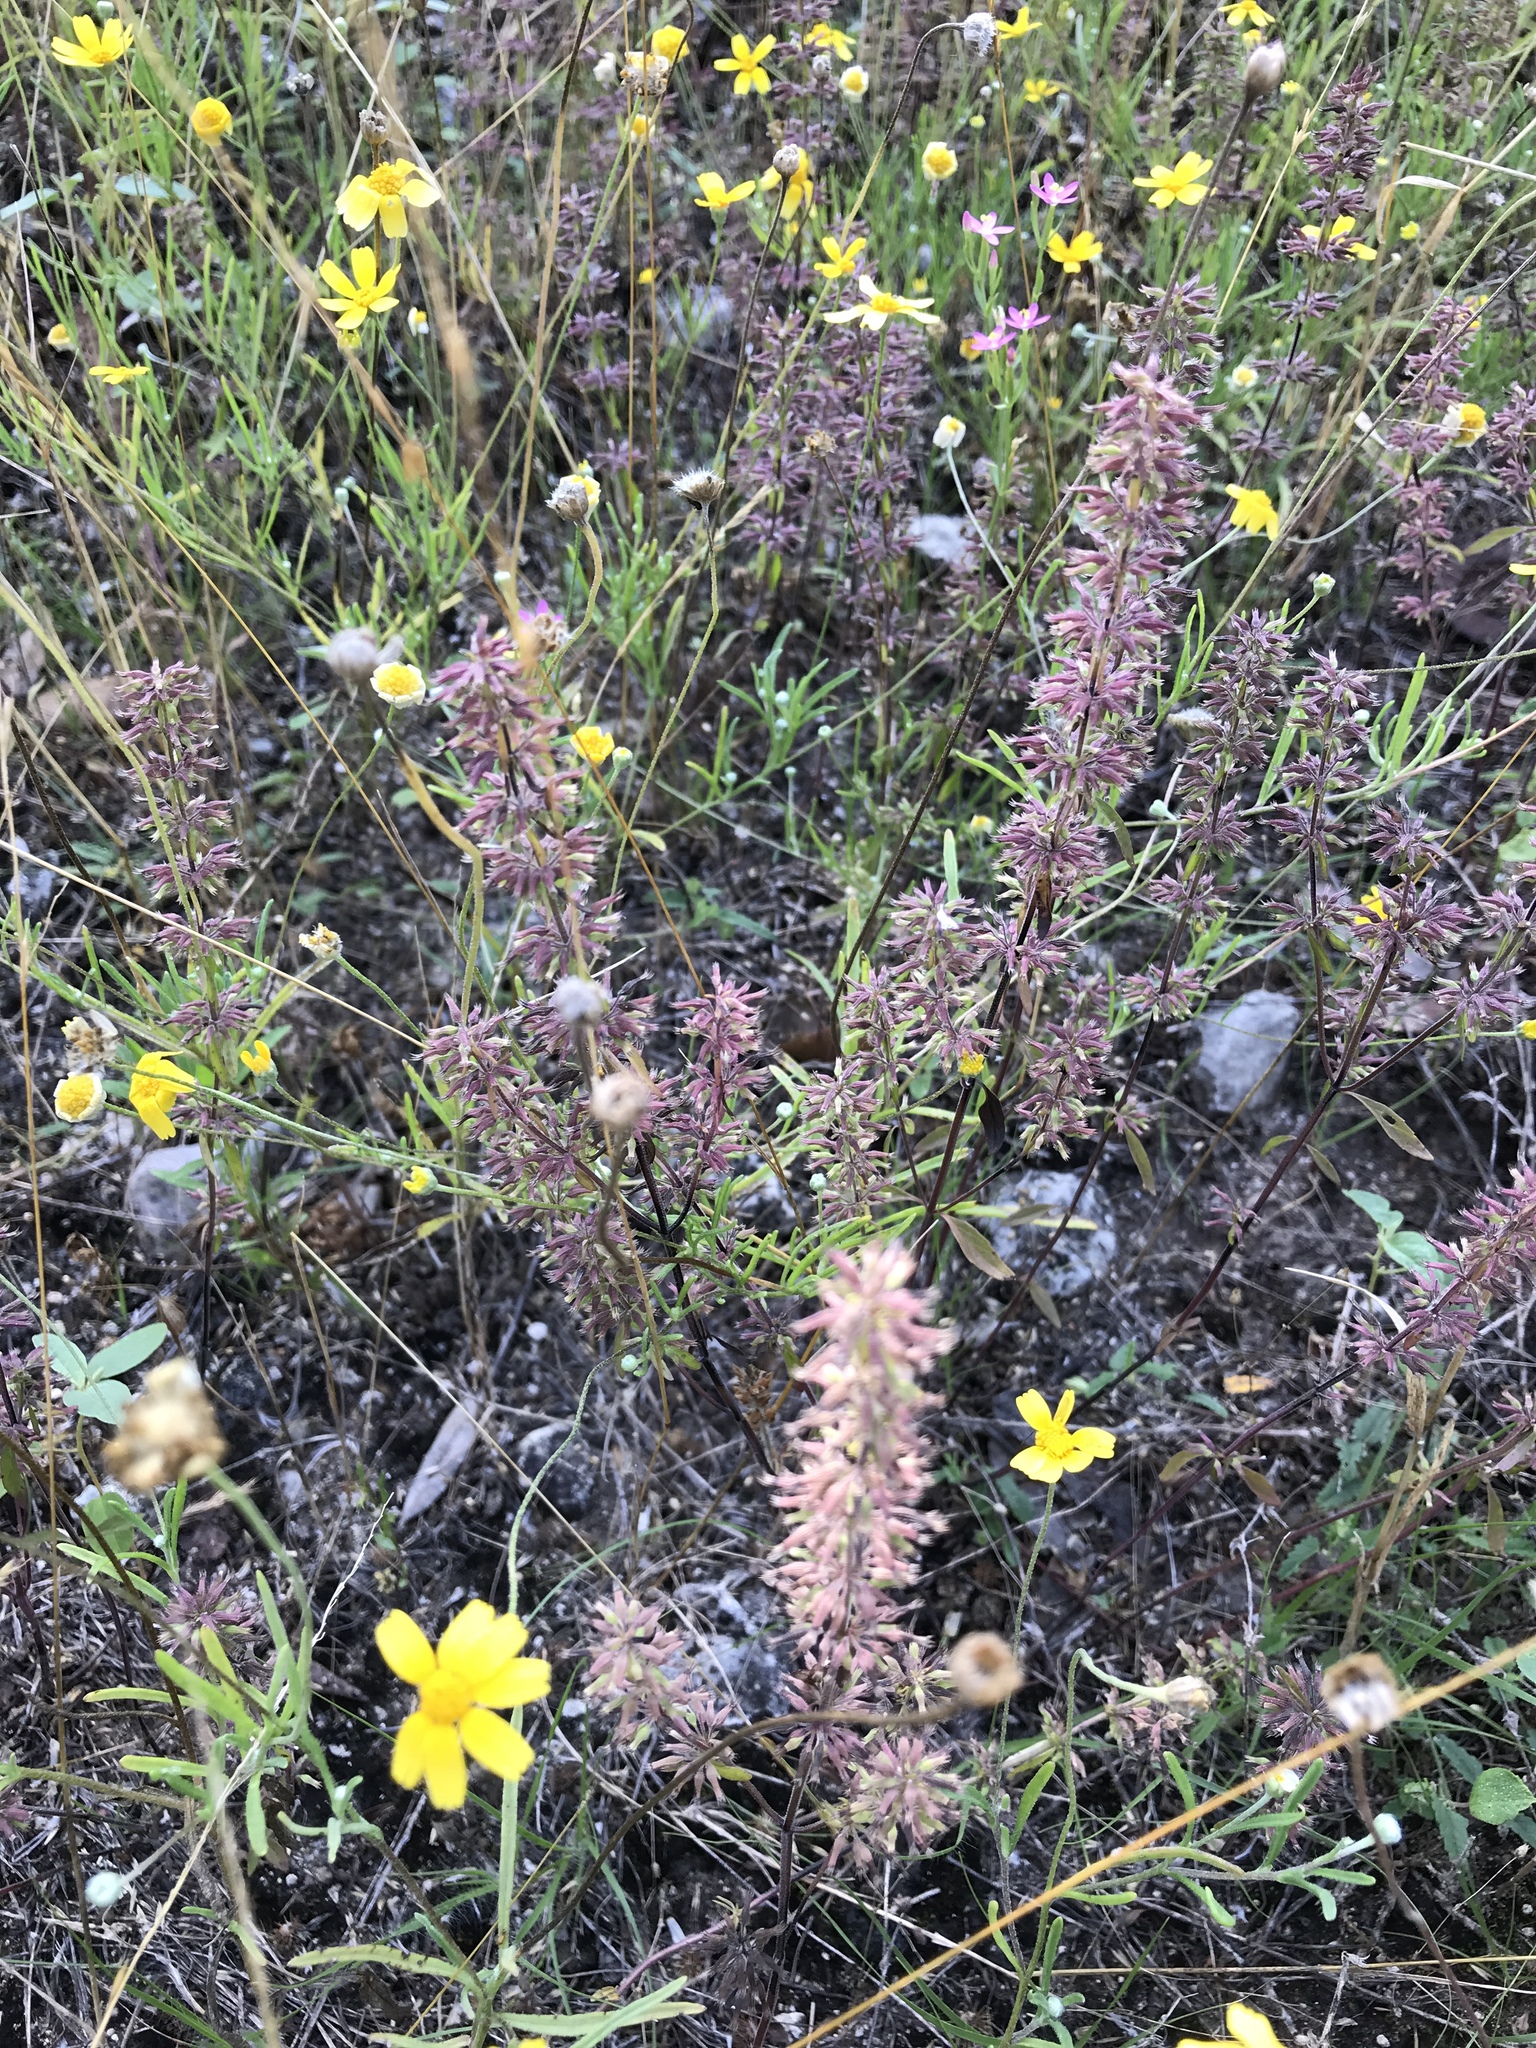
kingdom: Plantae
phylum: Tracheophyta
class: Magnoliopsida
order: Lamiales
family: Lamiaceae
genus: Hedeoma
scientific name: Hedeoma acinoides
